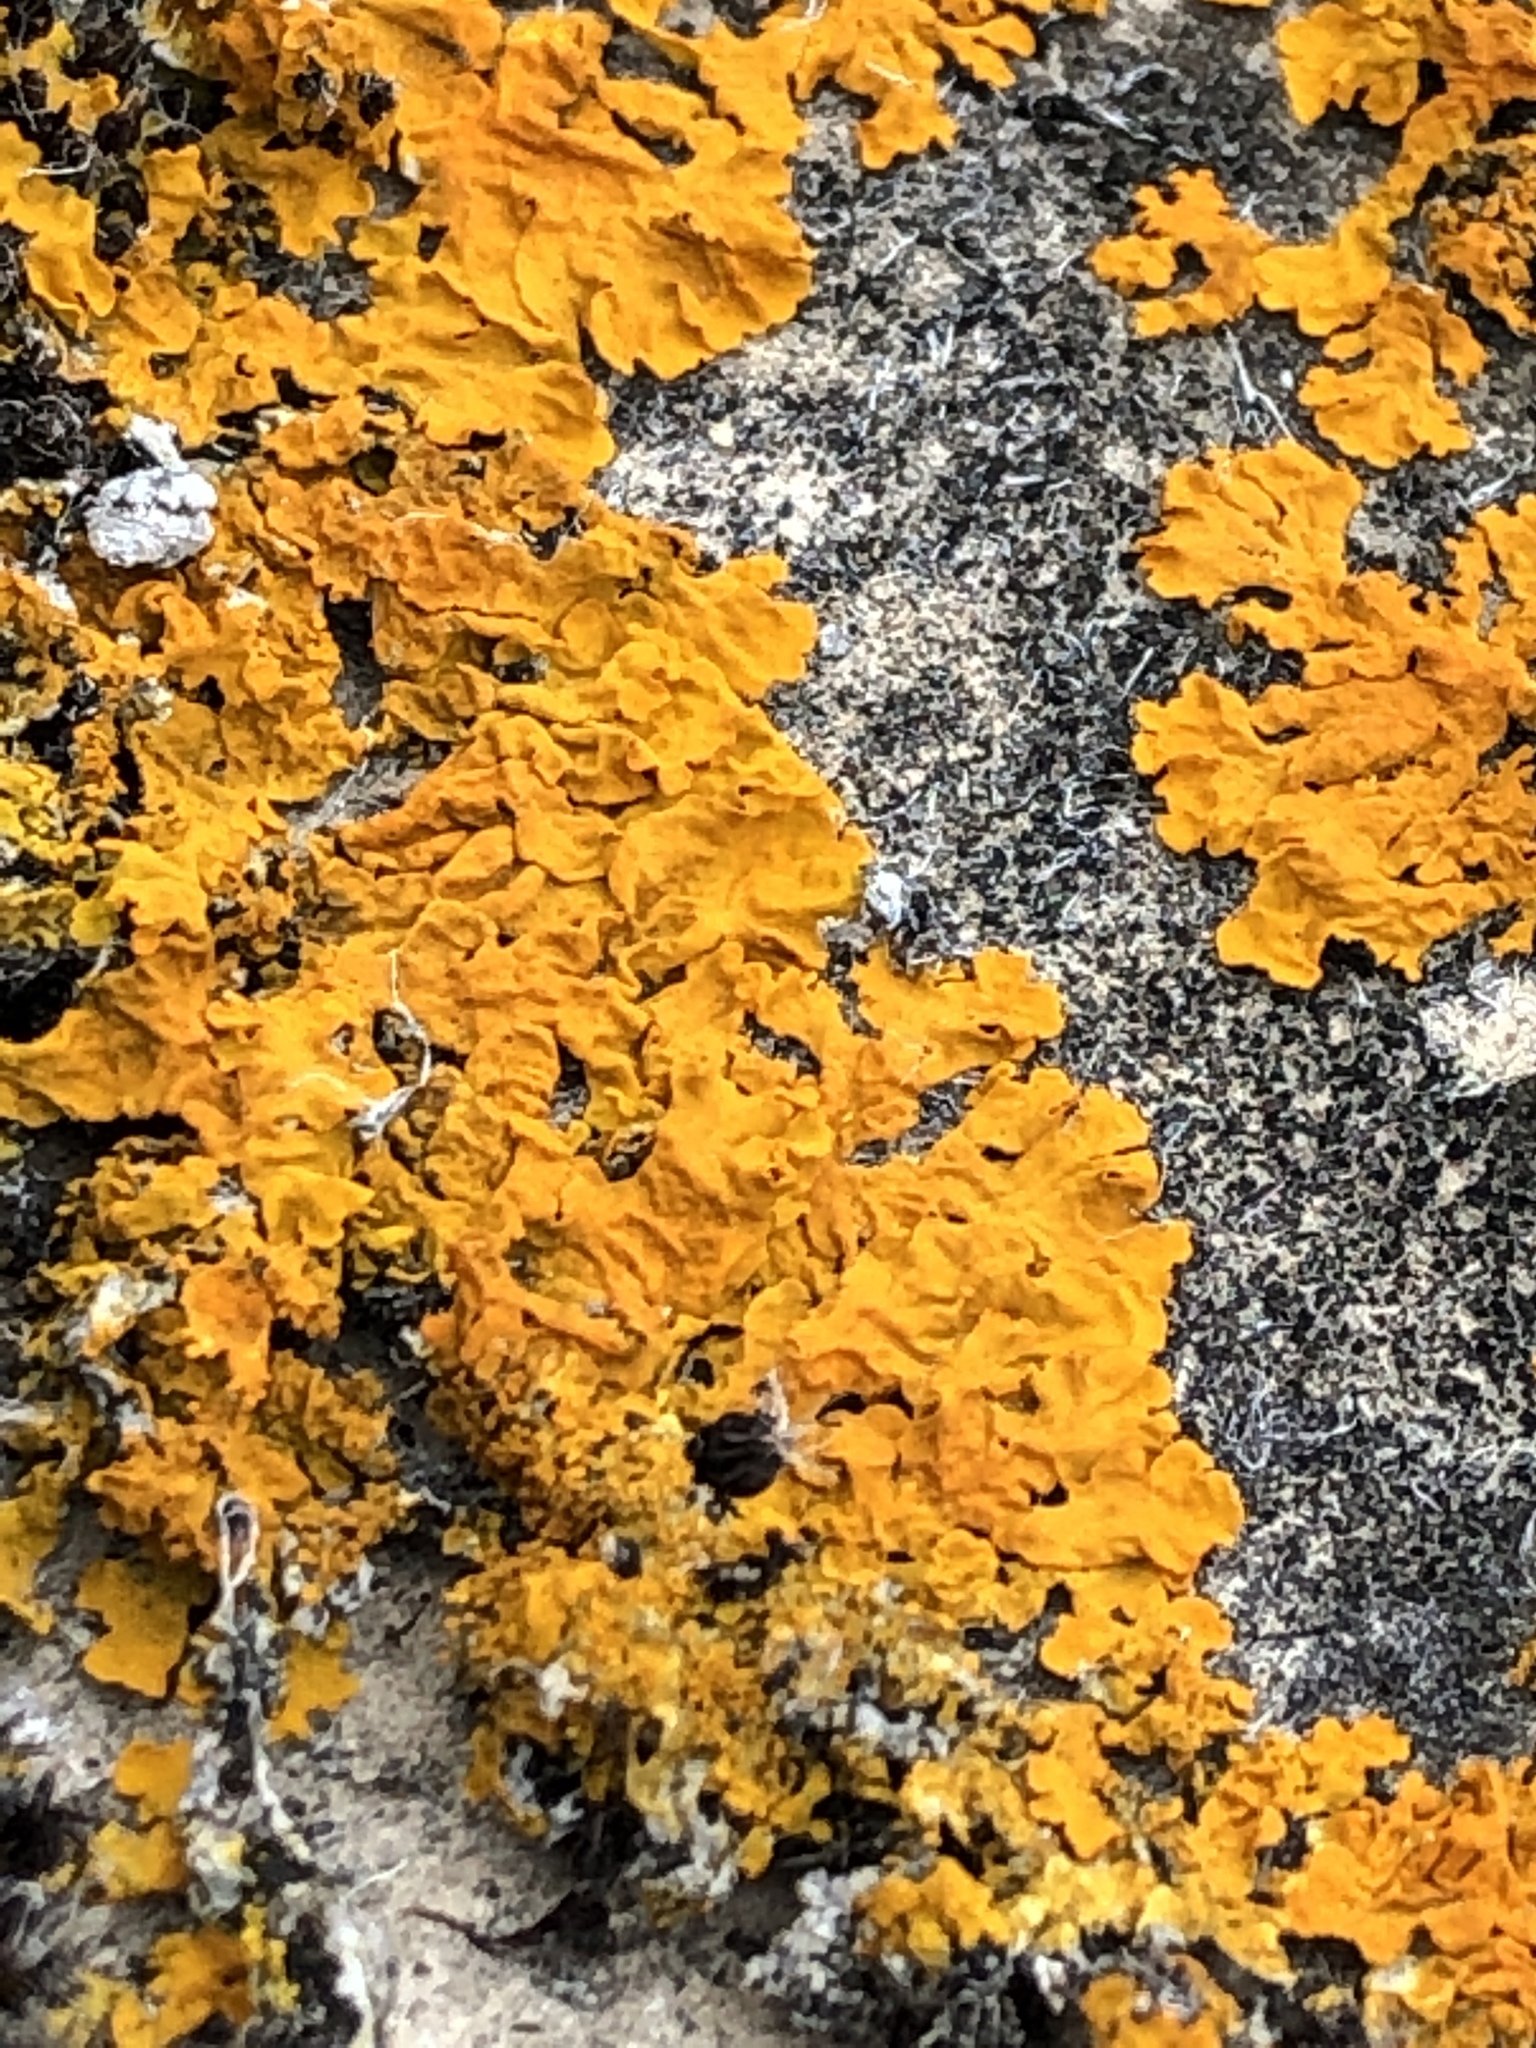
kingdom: Fungi
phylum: Ascomycota
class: Lecanoromycetes
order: Teloschistales
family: Teloschistaceae
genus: Xanthoria
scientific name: Xanthoria parietina
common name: Common orange lichen
